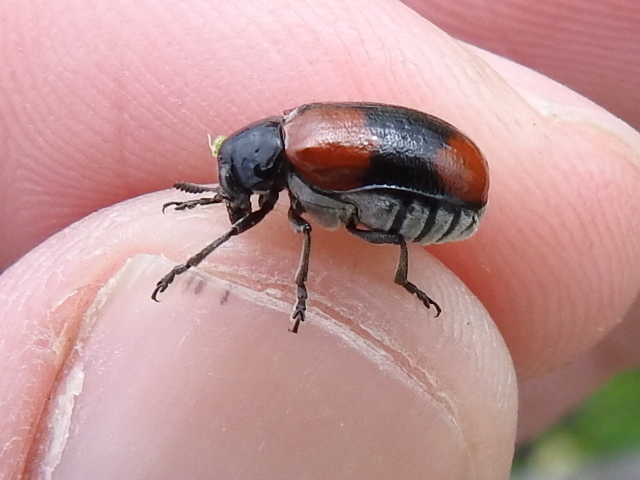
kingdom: Animalia
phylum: Arthropoda
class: Insecta
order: Coleoptera
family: Chrysomelidae
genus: Anomoea
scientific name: Anomoea rufifrons
